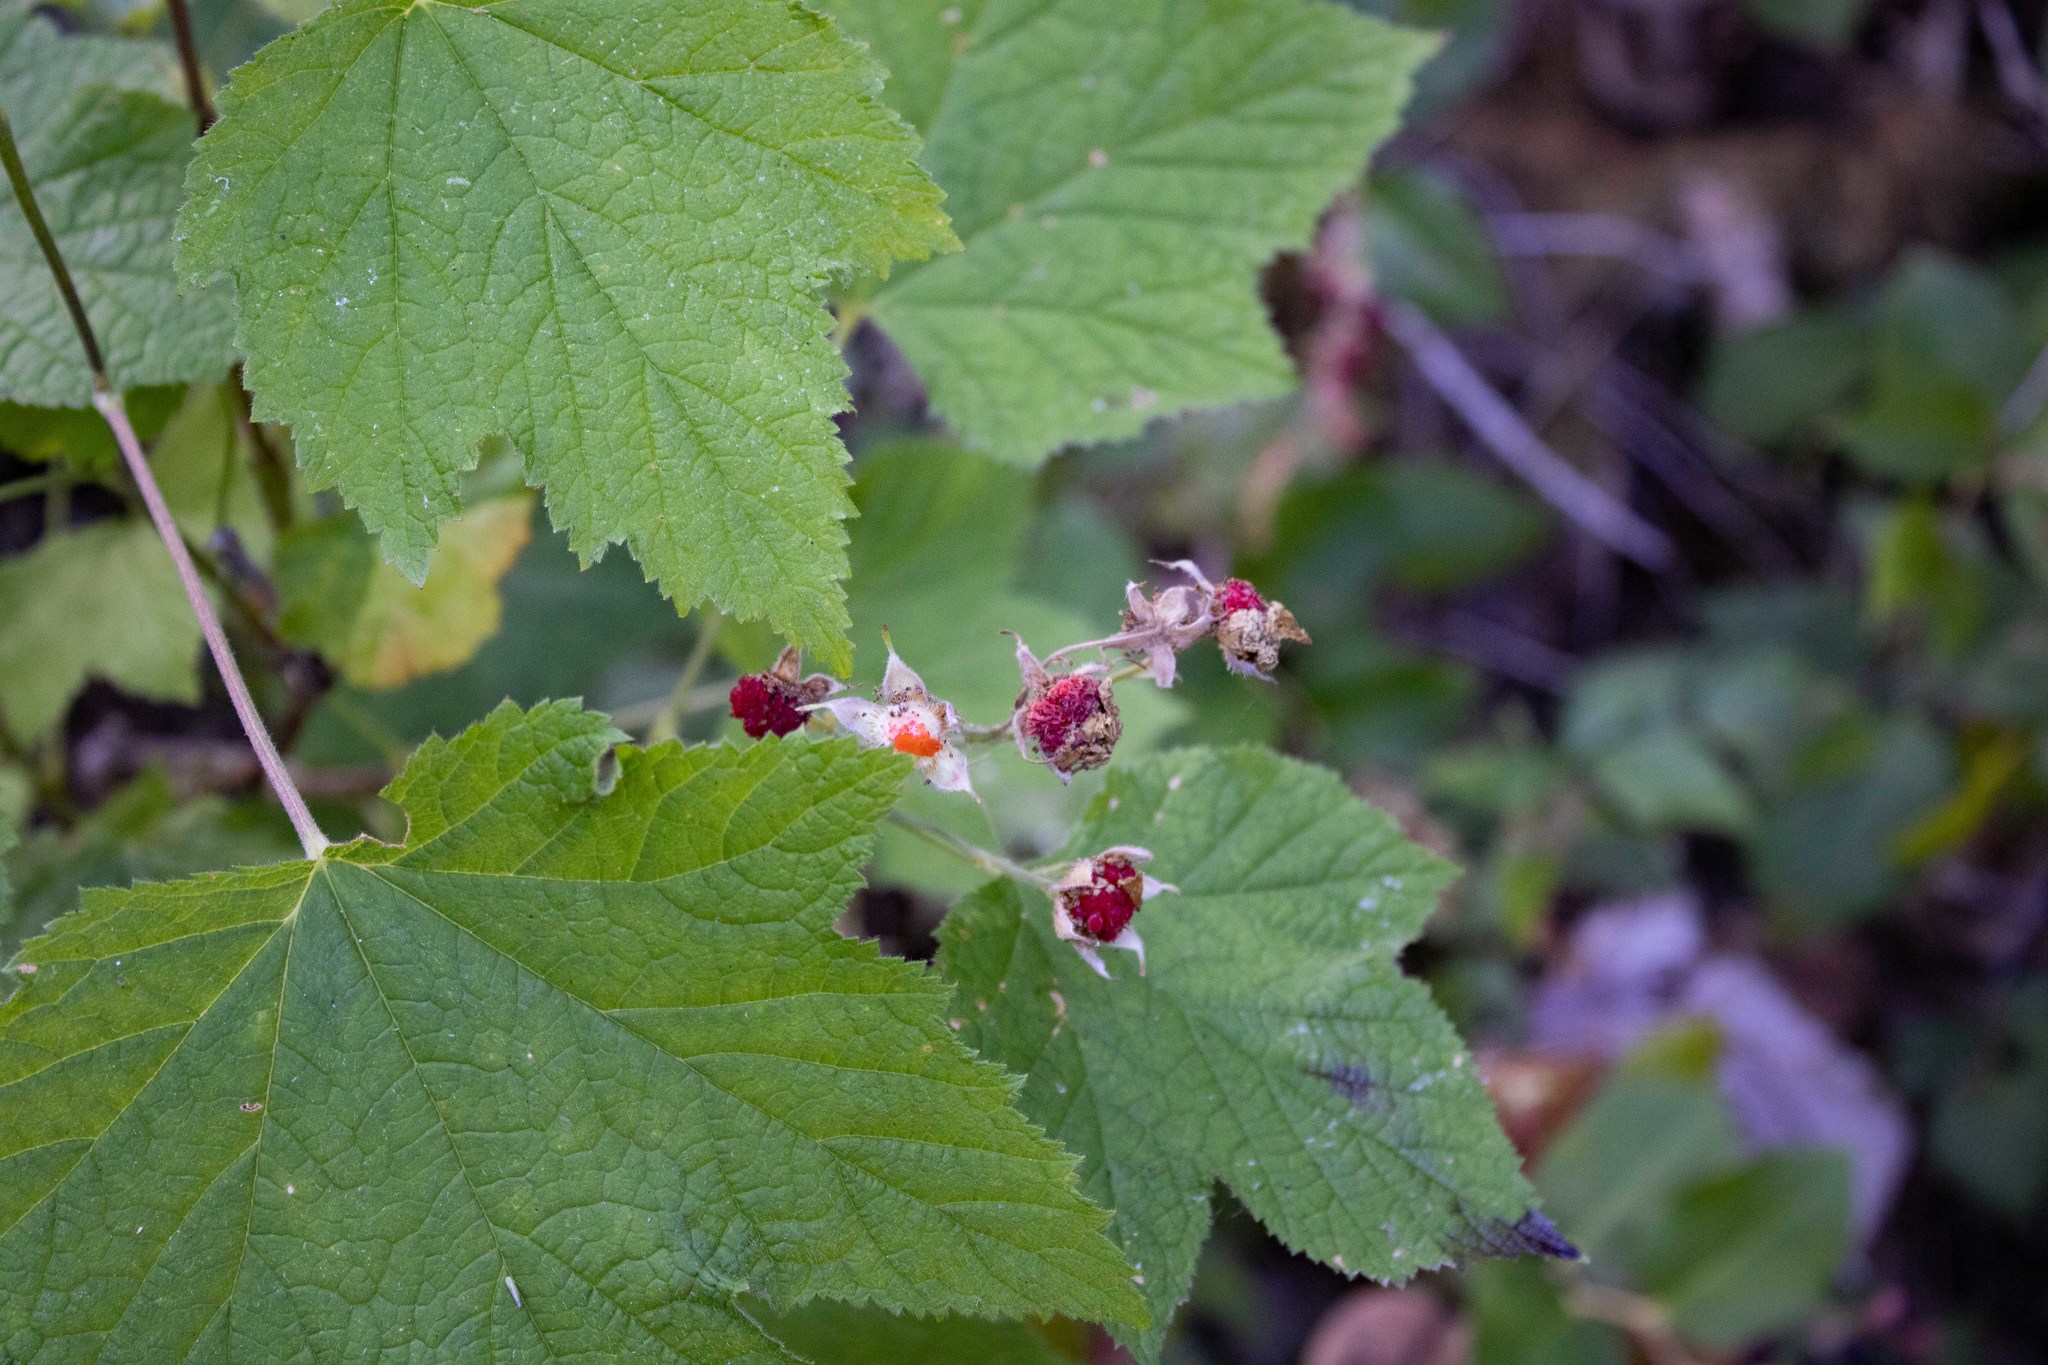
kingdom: Plantae
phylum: Tracheophyta
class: Magnoliopsida
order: Rosales
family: Rosaceae
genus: Rubus
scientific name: Rubus parviflorus
